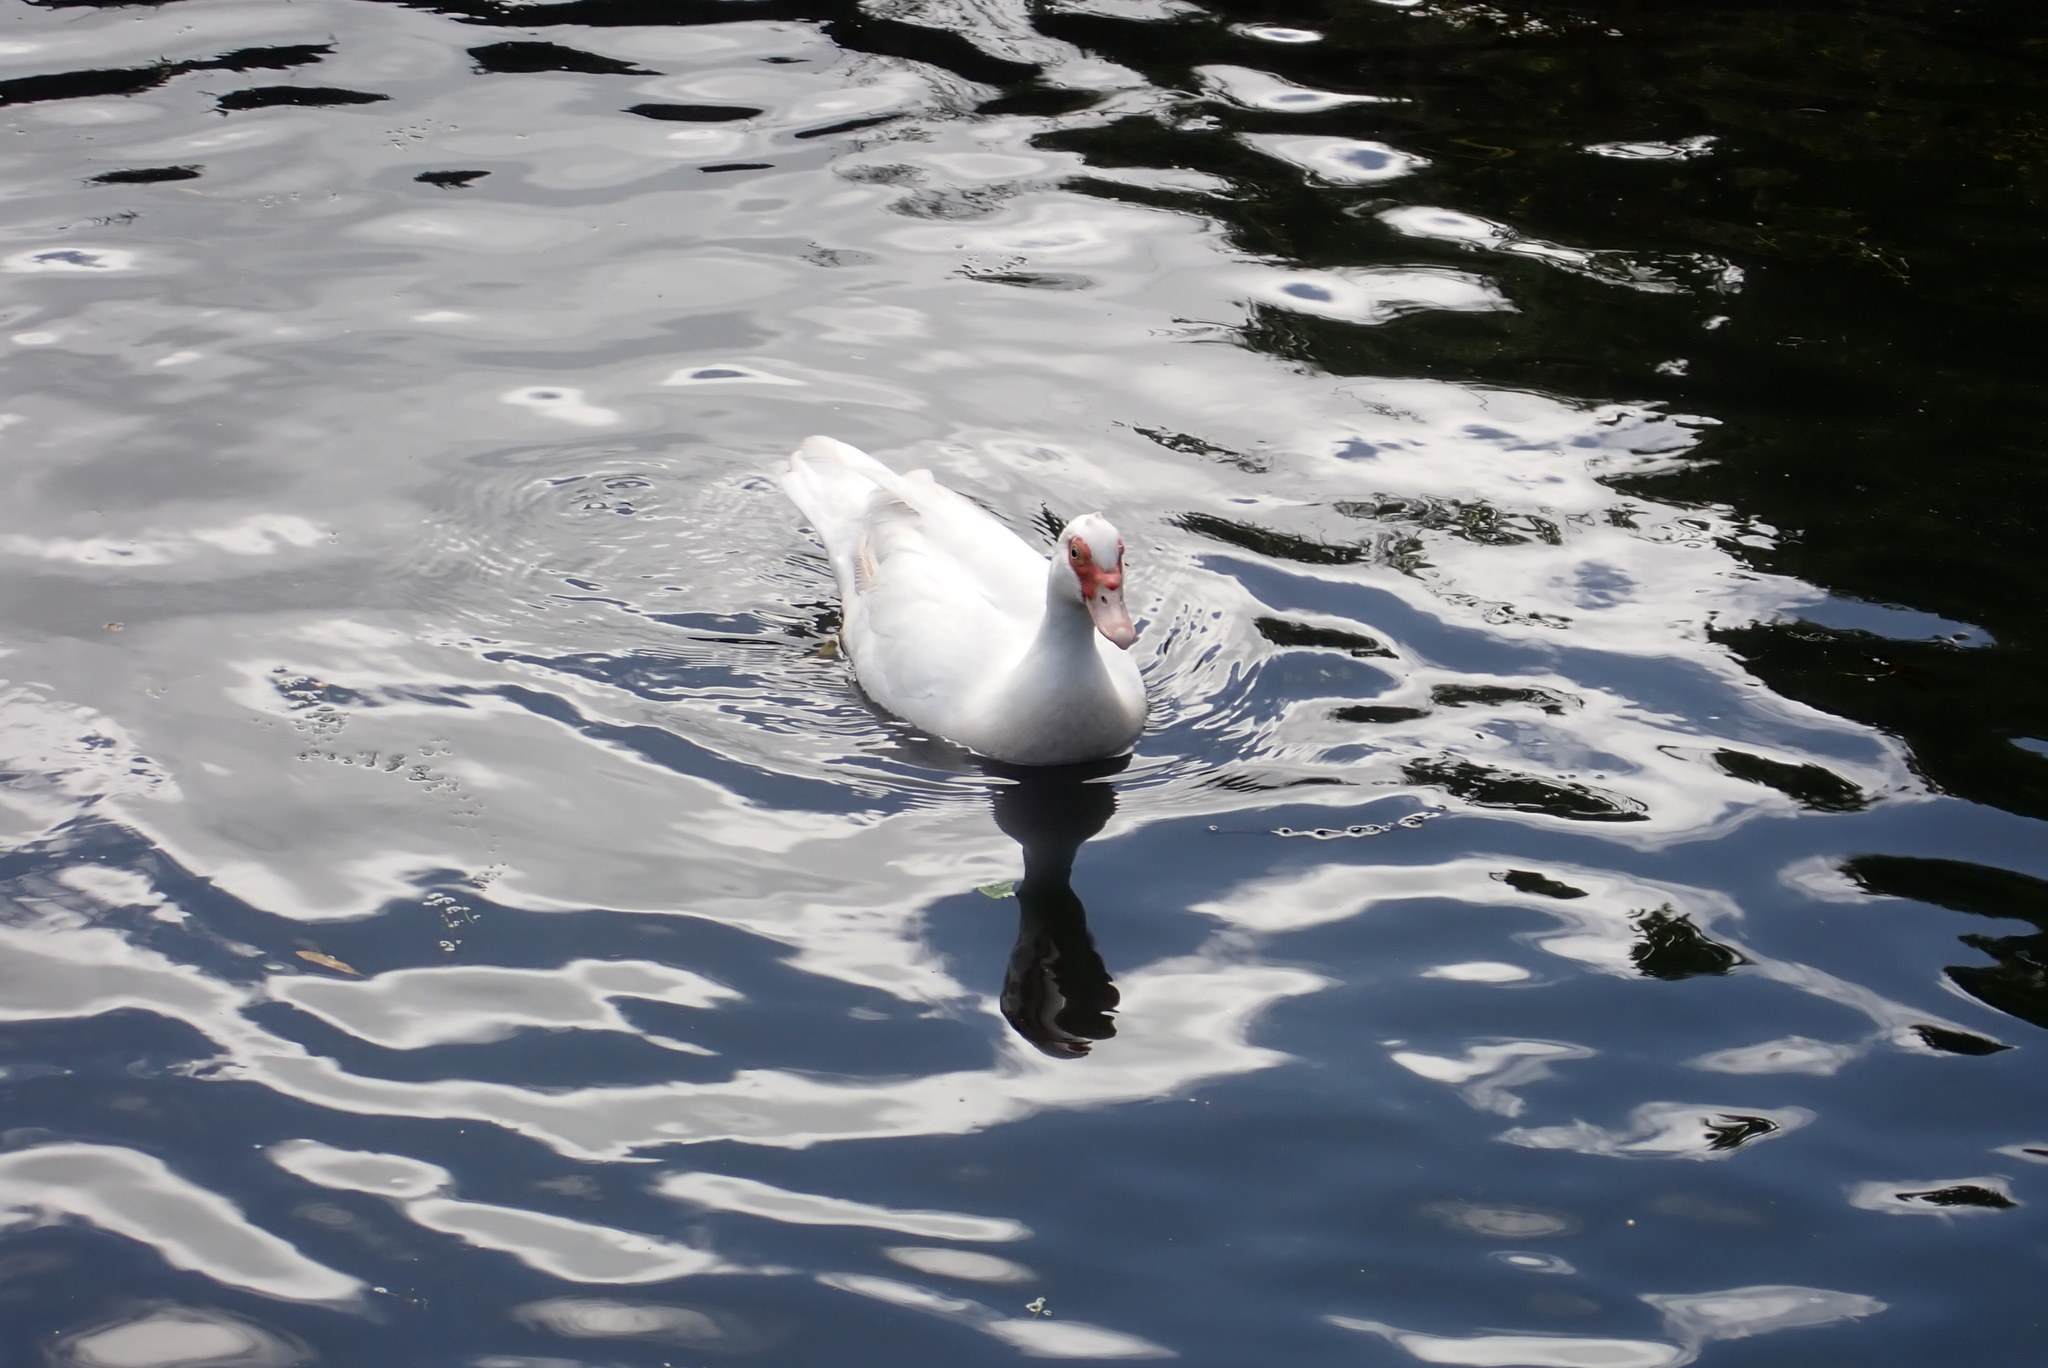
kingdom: Animalia
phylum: Chordata
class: Aves
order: Anseriformes
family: Anatidae
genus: Cairina
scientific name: Cairina moschata
